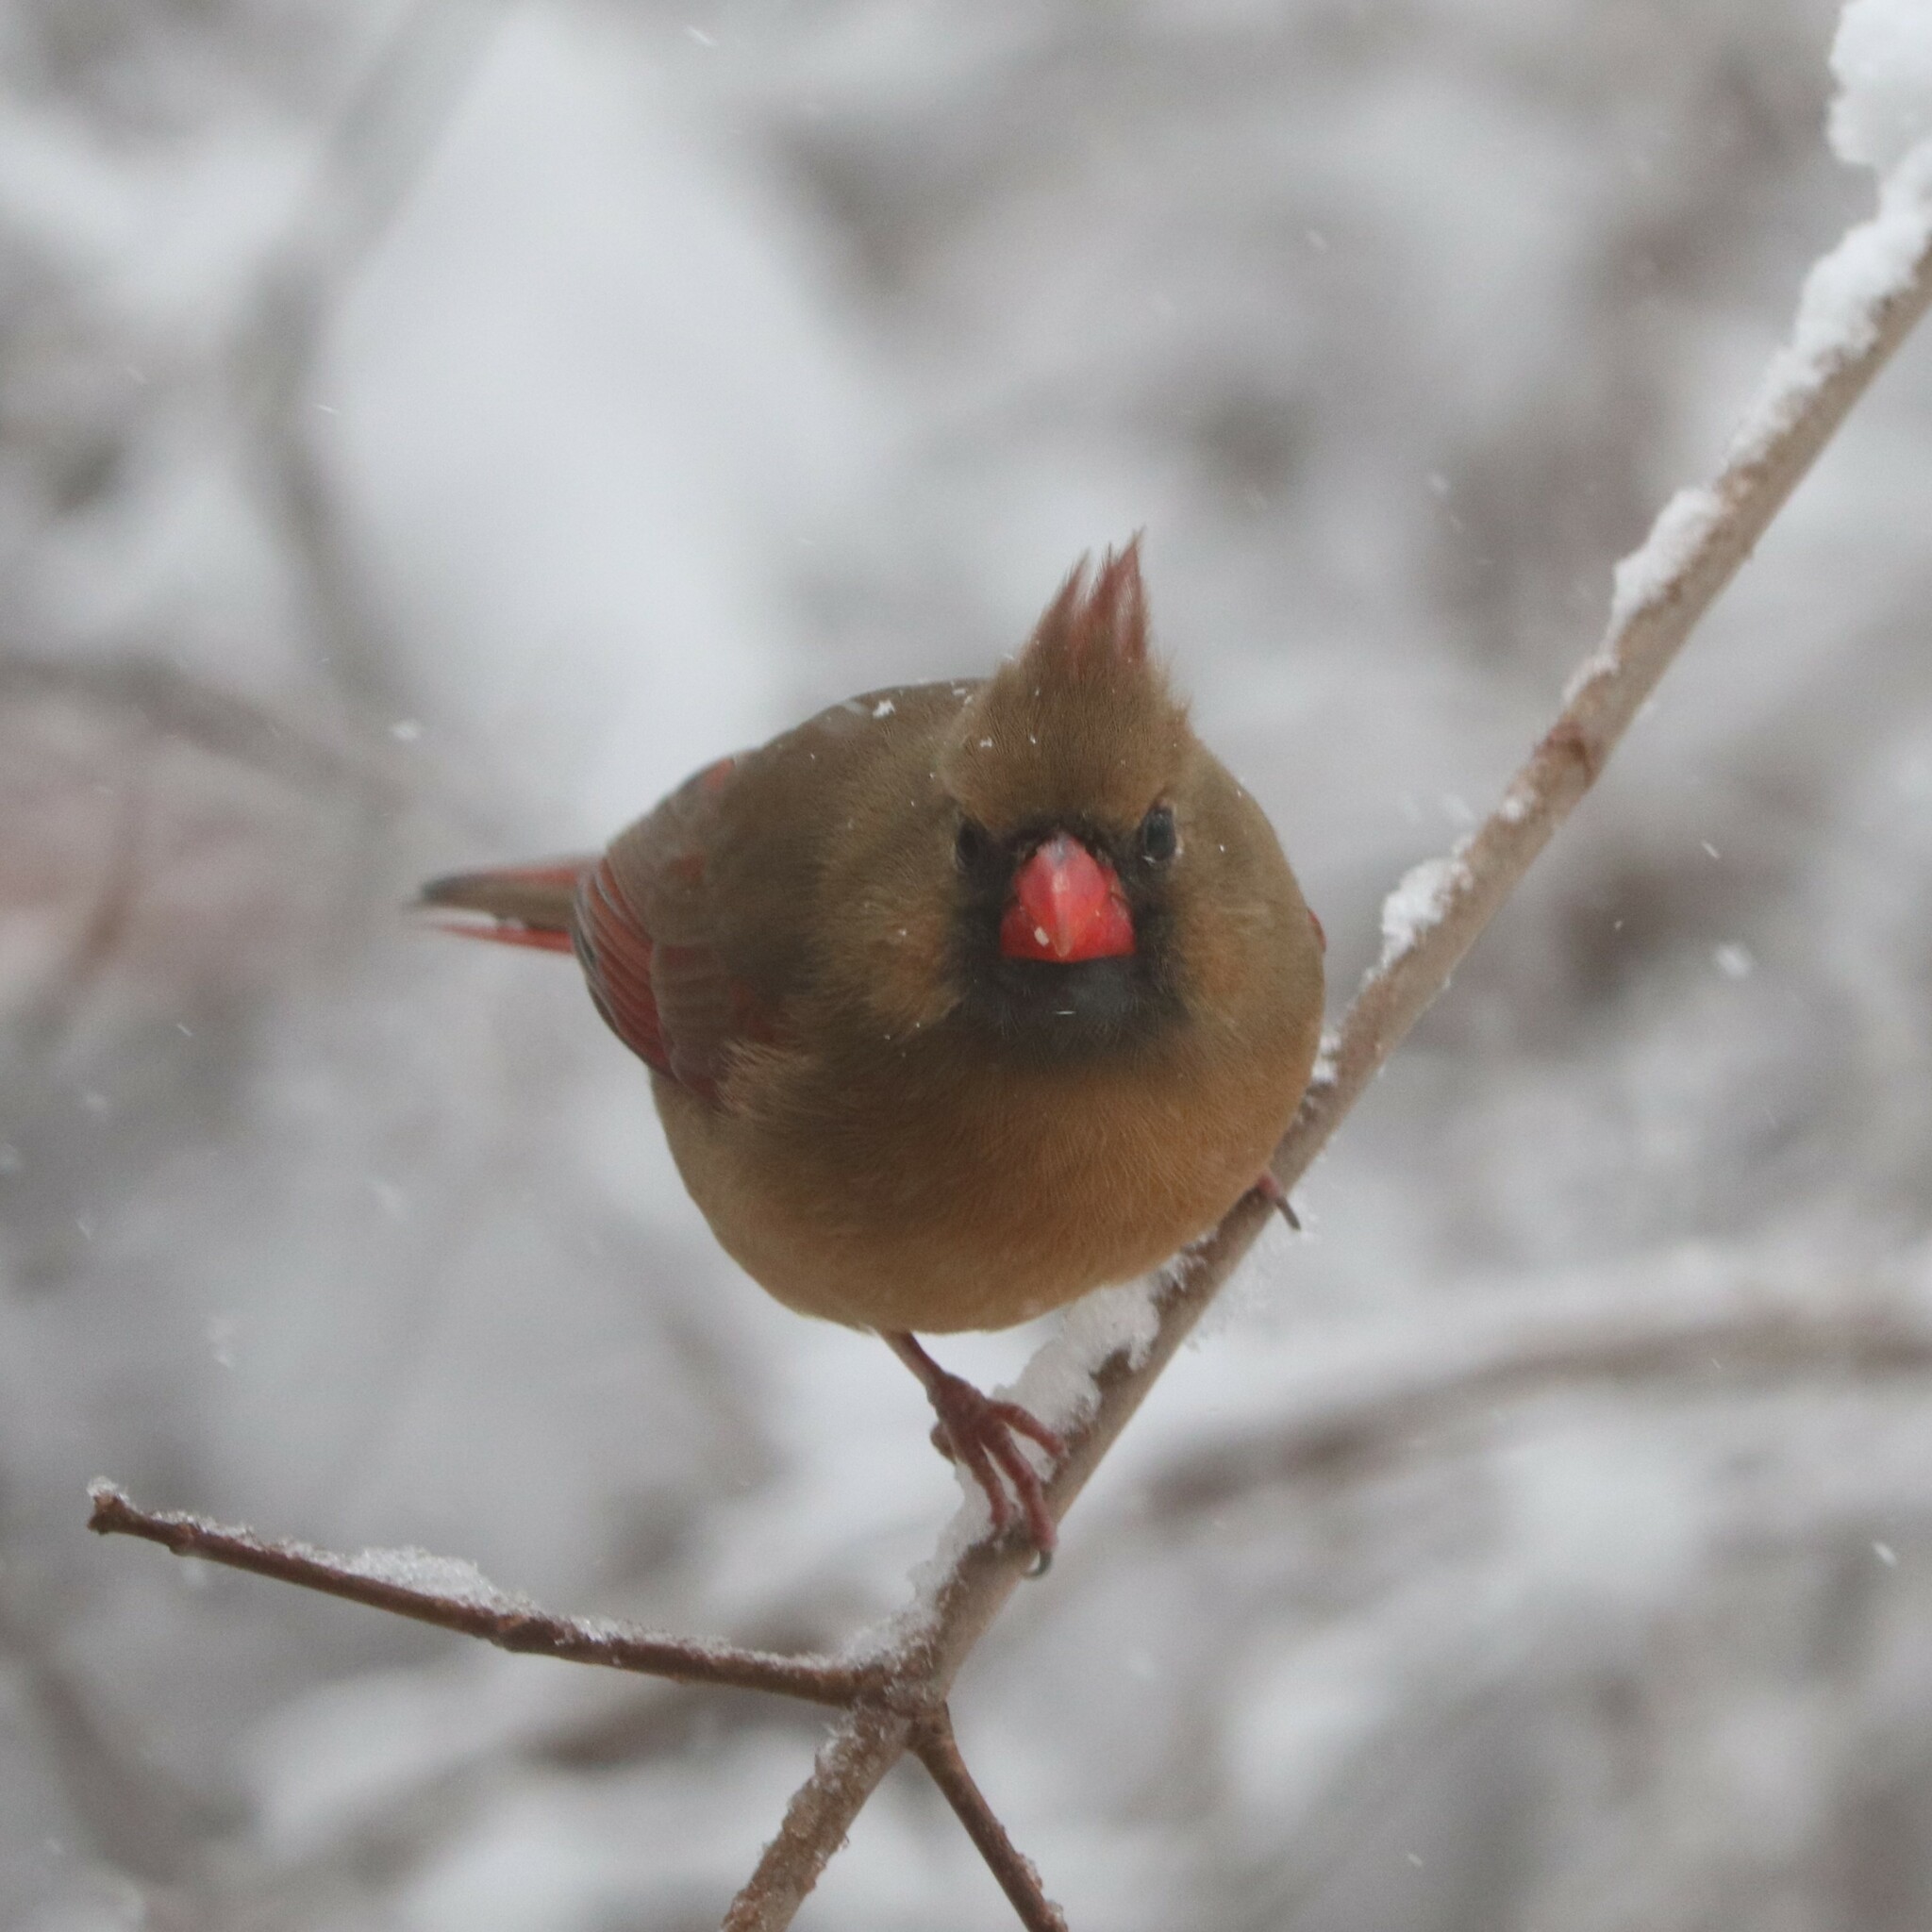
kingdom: Animalia
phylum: Chordata
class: Aves
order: Passeriformes
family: Cardinalidae
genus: Cardinalis
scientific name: Cardinalis cardinalis
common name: Northern cardinal
